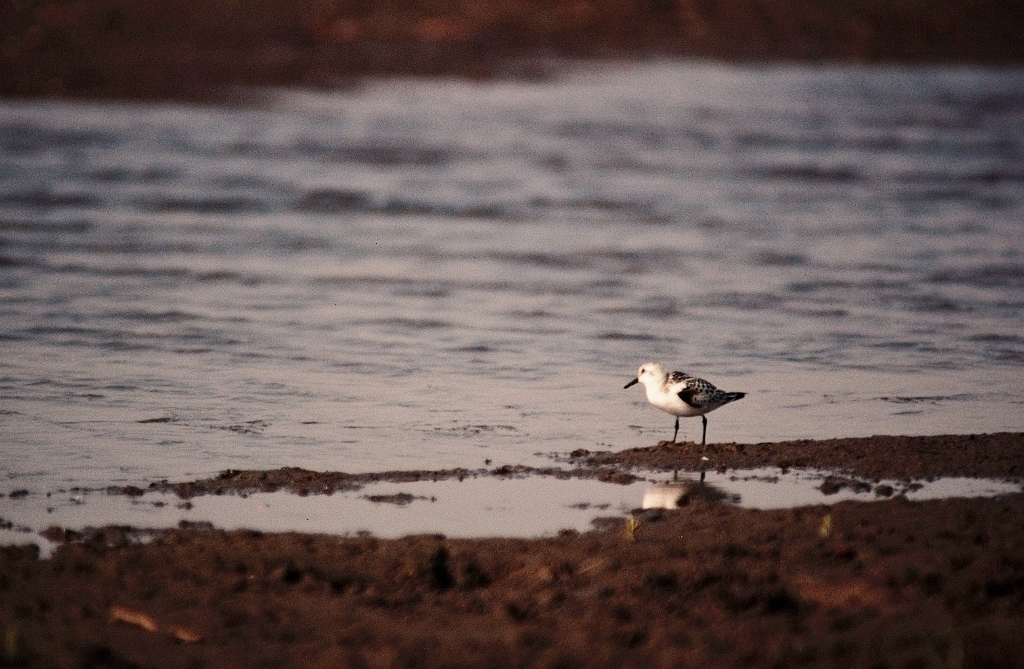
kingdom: Animalia
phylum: Chordata
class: Aves
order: Charadriiformes
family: Scolopacidae
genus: Calidris
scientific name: Calidris alba
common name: Sanderling
